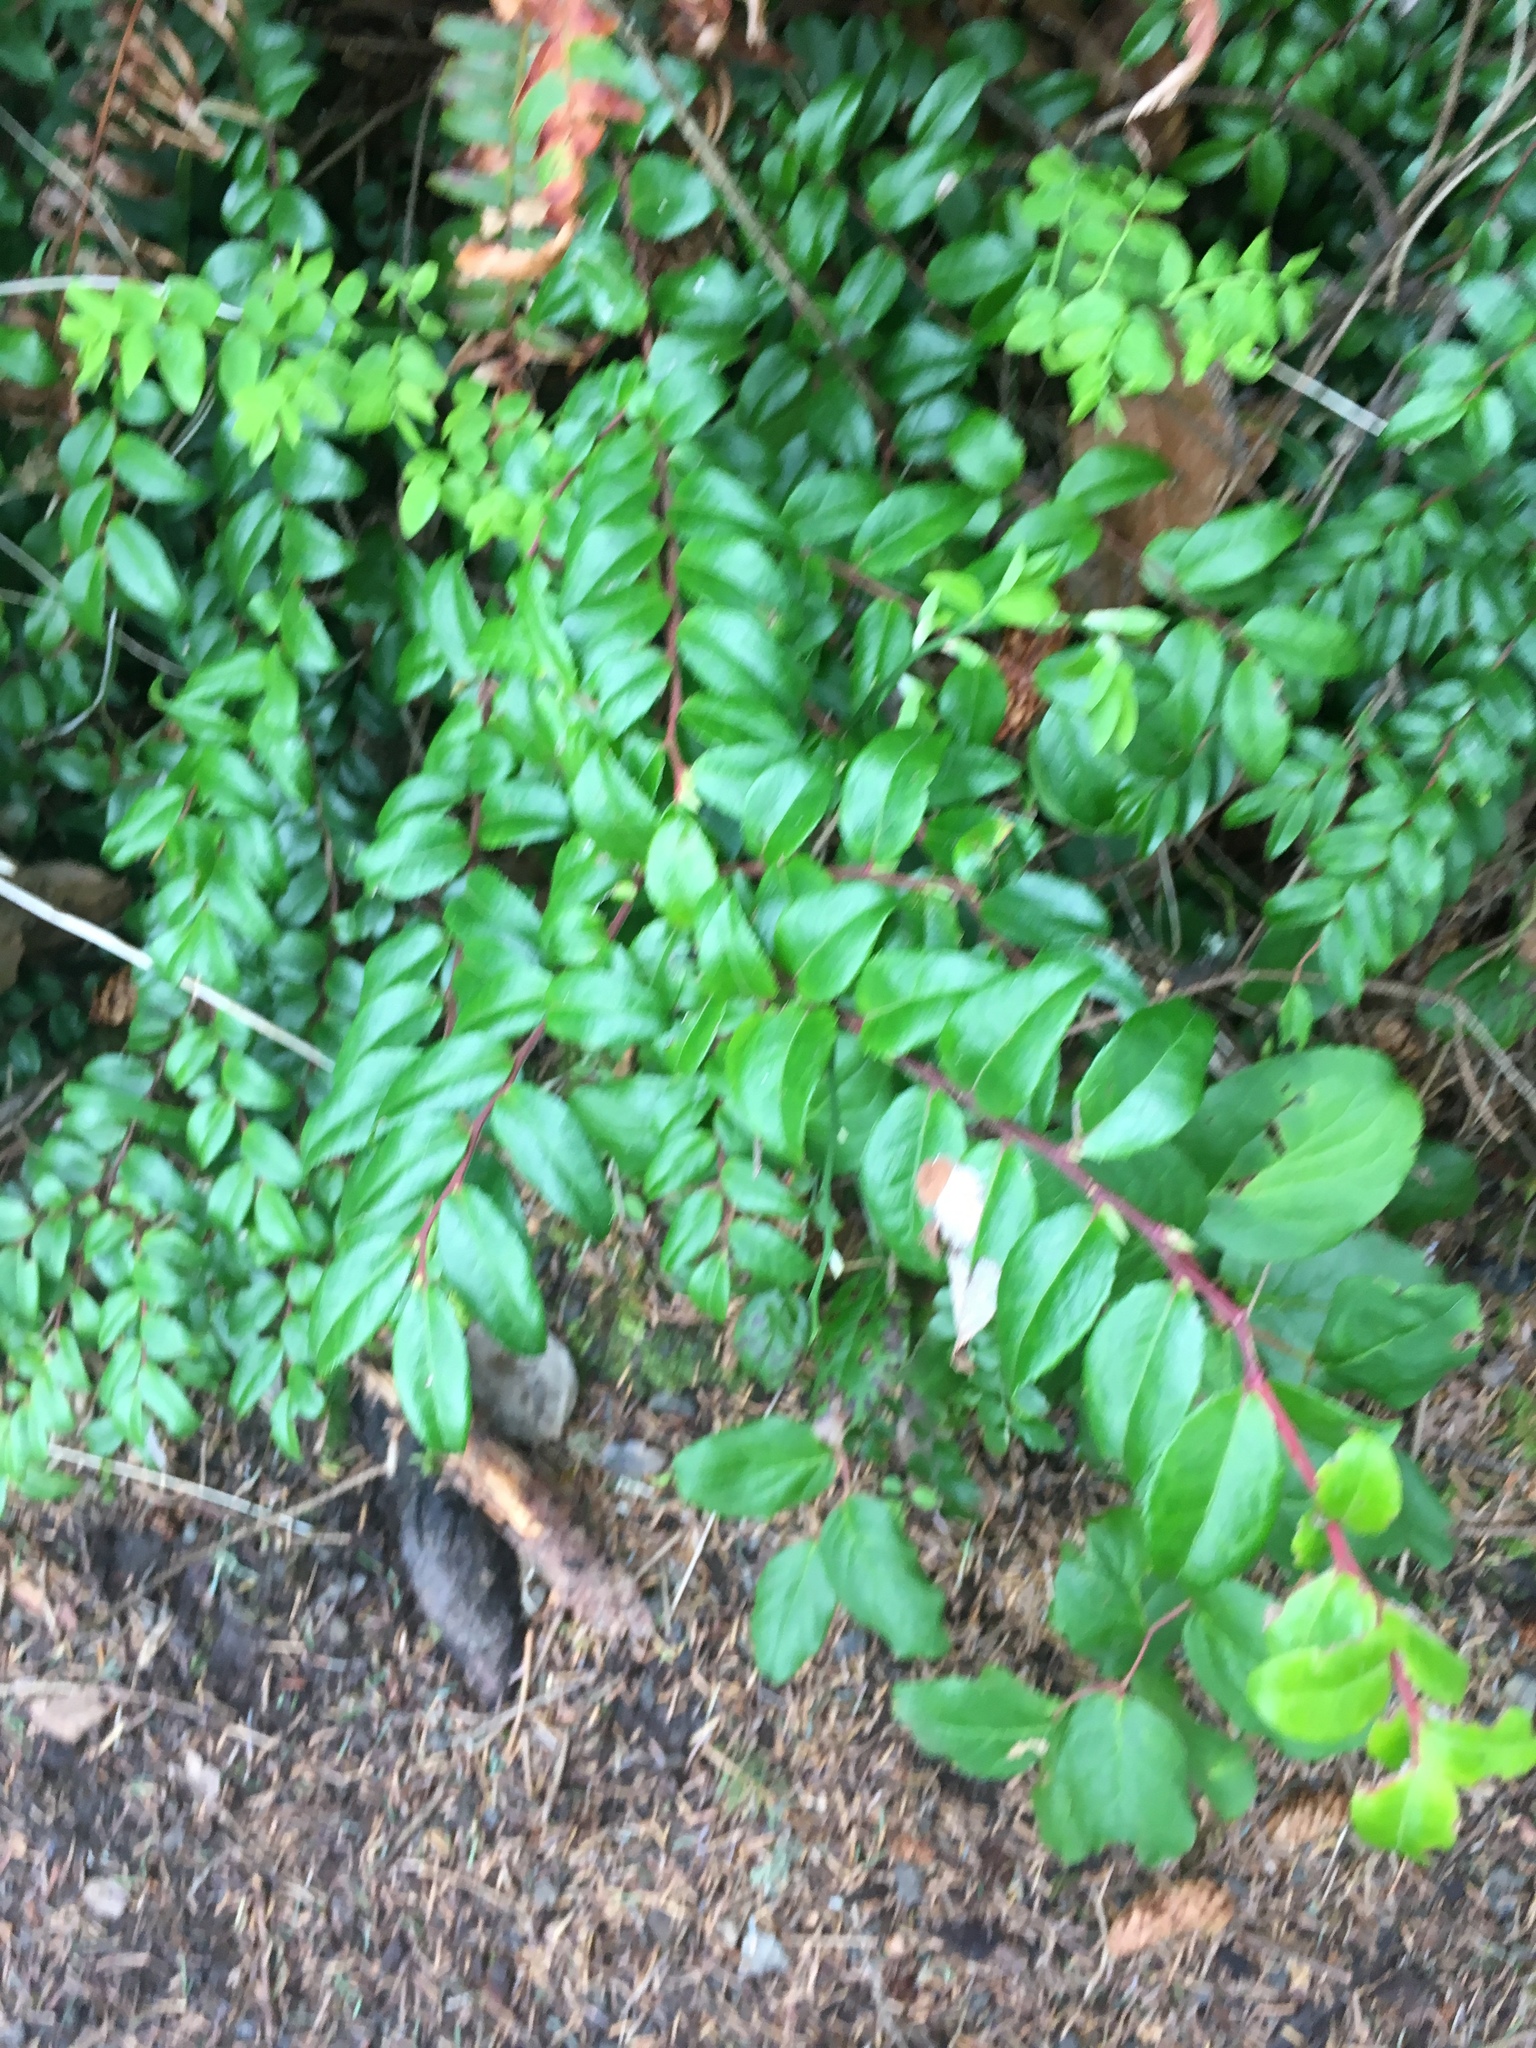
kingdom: Plantae
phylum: Tracheophyta
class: Magnoliopsida
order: Ericales
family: Ericaceae
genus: Vaccinium
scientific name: Vaccinium ovatum
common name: California-huckleberry
